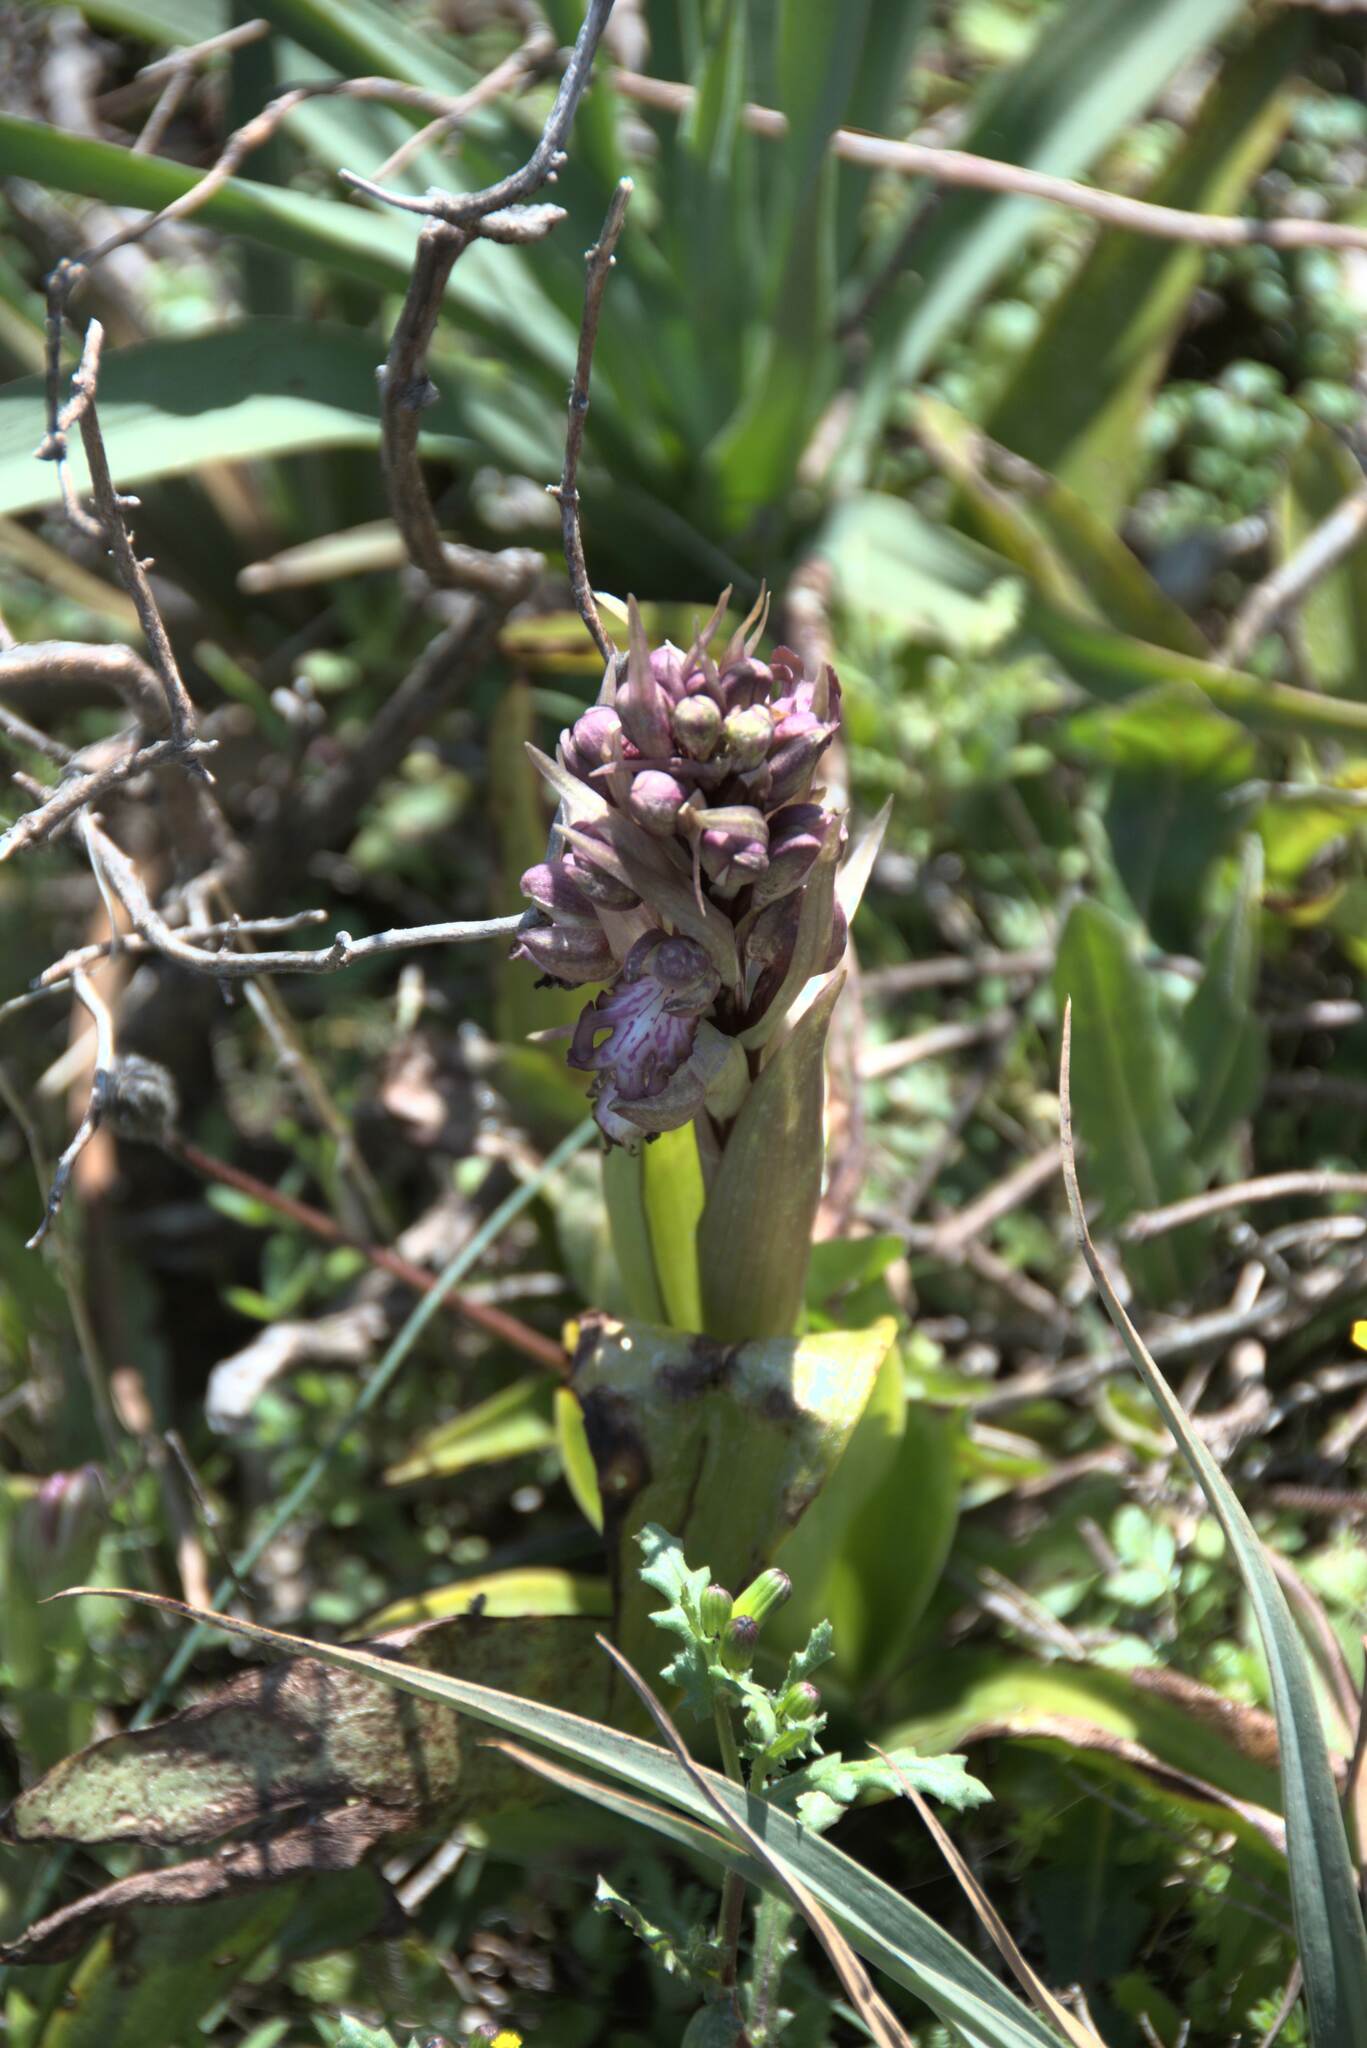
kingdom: Plantae
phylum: Tracheophyta
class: Liliopsida
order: Asparagales
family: Orchidaceae
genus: Himantoglossum
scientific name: Himantoglossum robertianum
